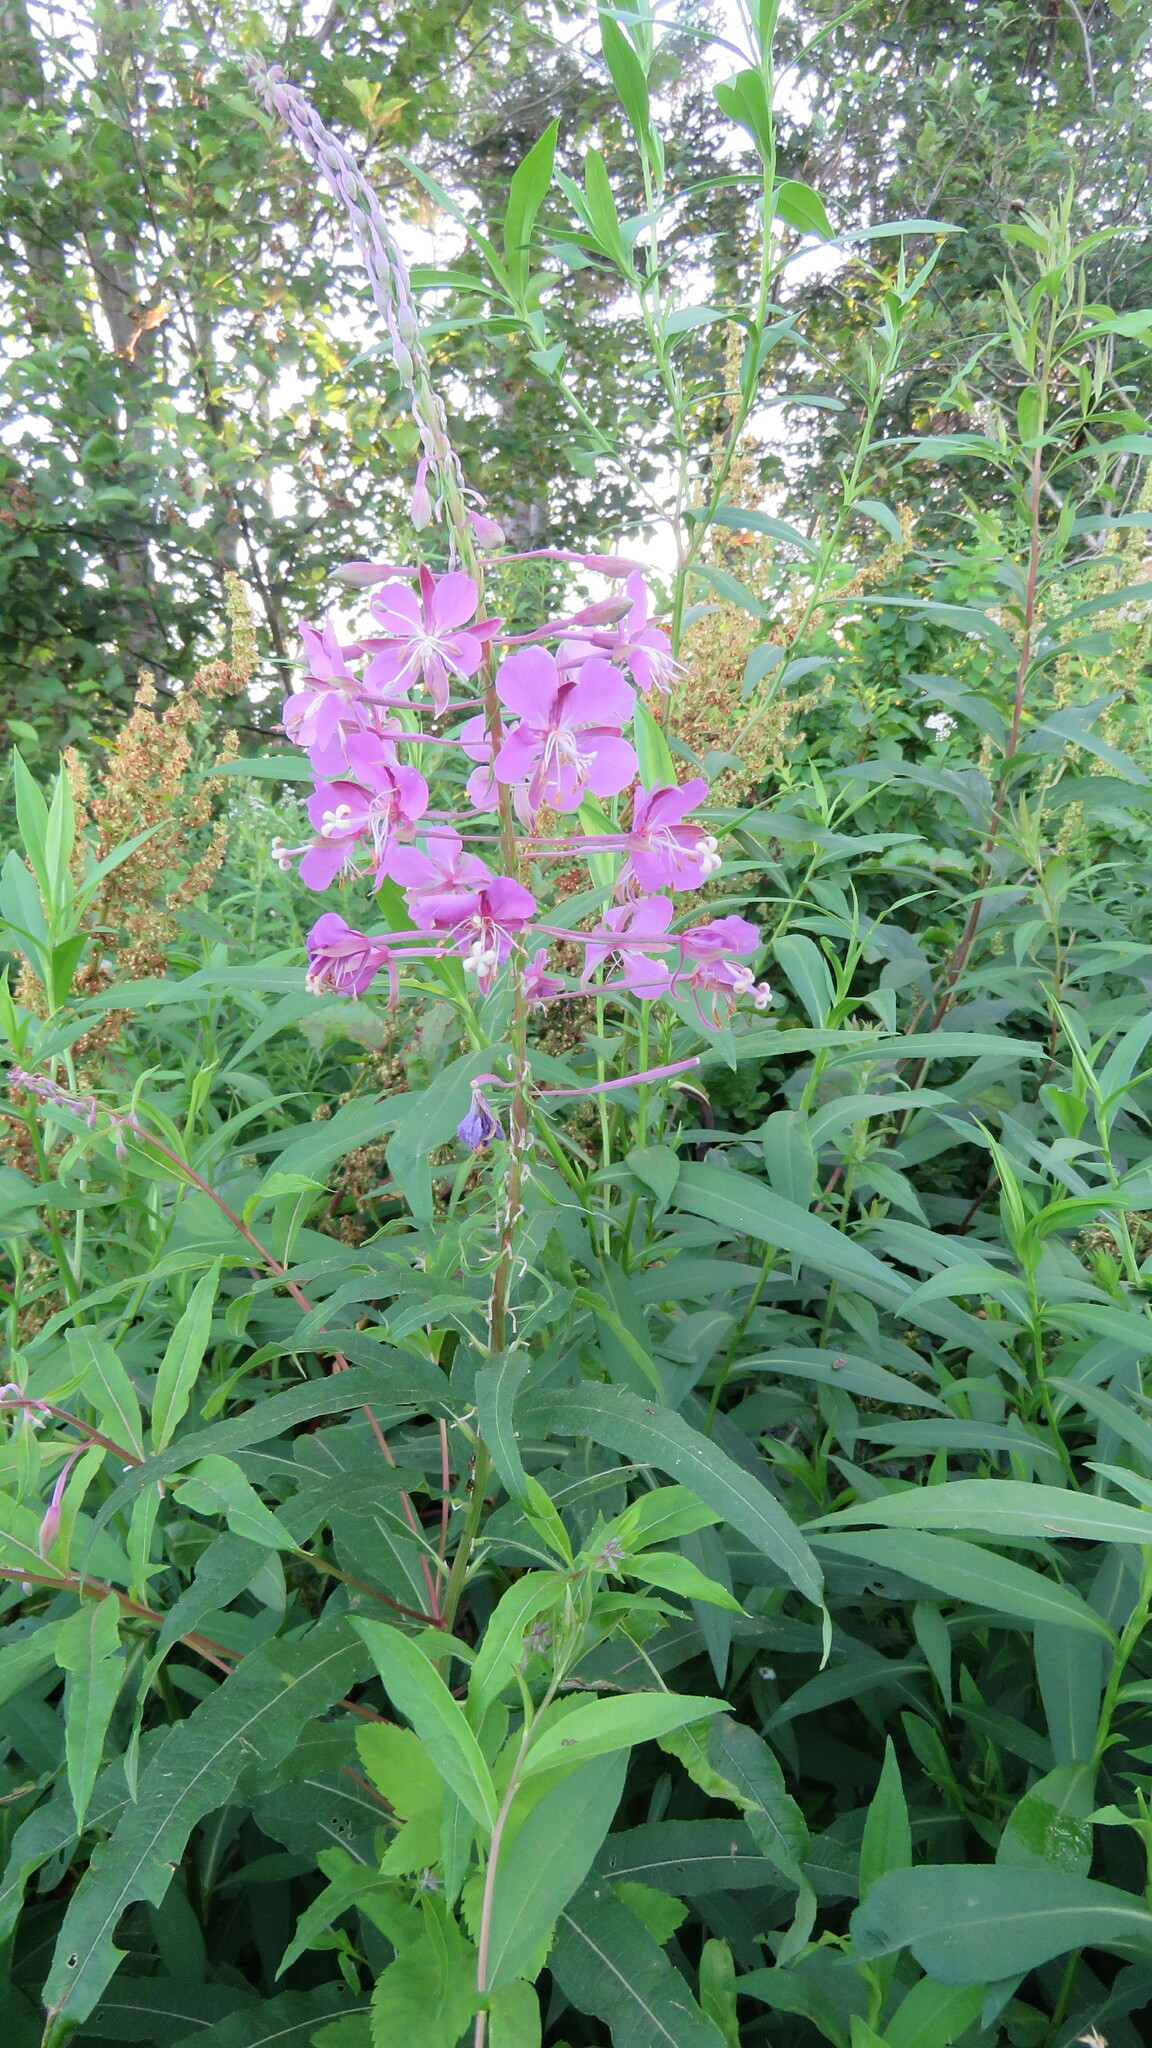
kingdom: Plantae
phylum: Tracheophyta
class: Magnoliopsida
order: Myrtales
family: Onagraceae
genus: Chamaenerion
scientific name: Chamaenerion angustifolium
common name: Fireweed
